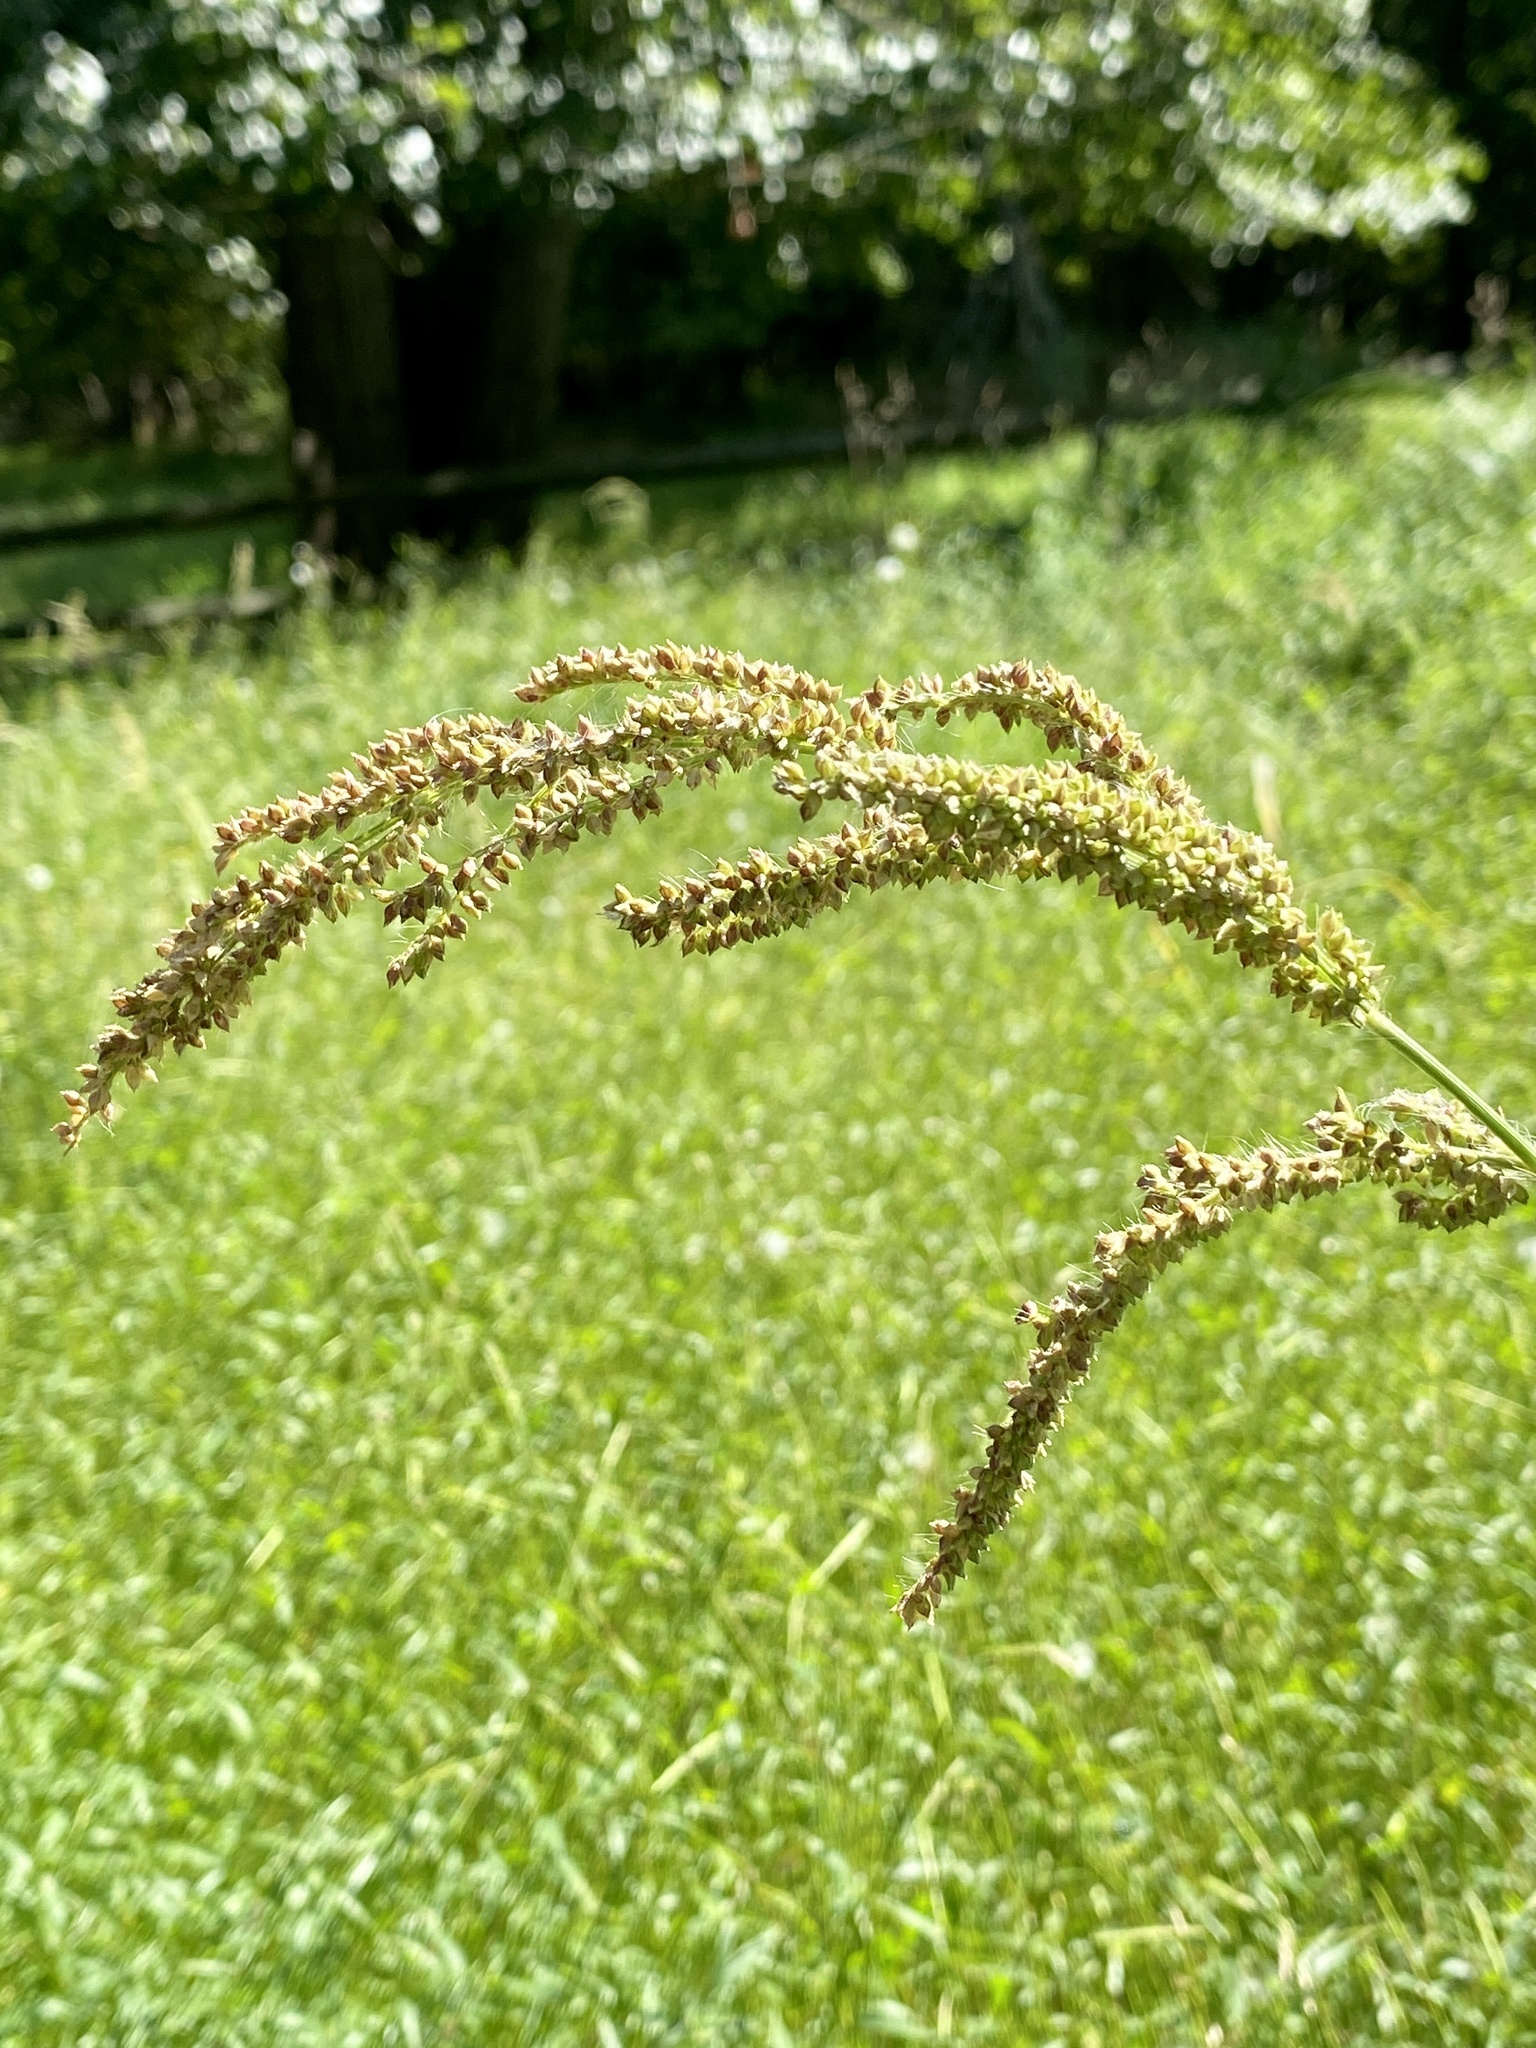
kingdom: Plantae
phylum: Tracheophyta
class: Liliopsida
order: Poales
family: Poaceae
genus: Echinochloa
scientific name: Echinochloa crus-galli
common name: Cockspur
